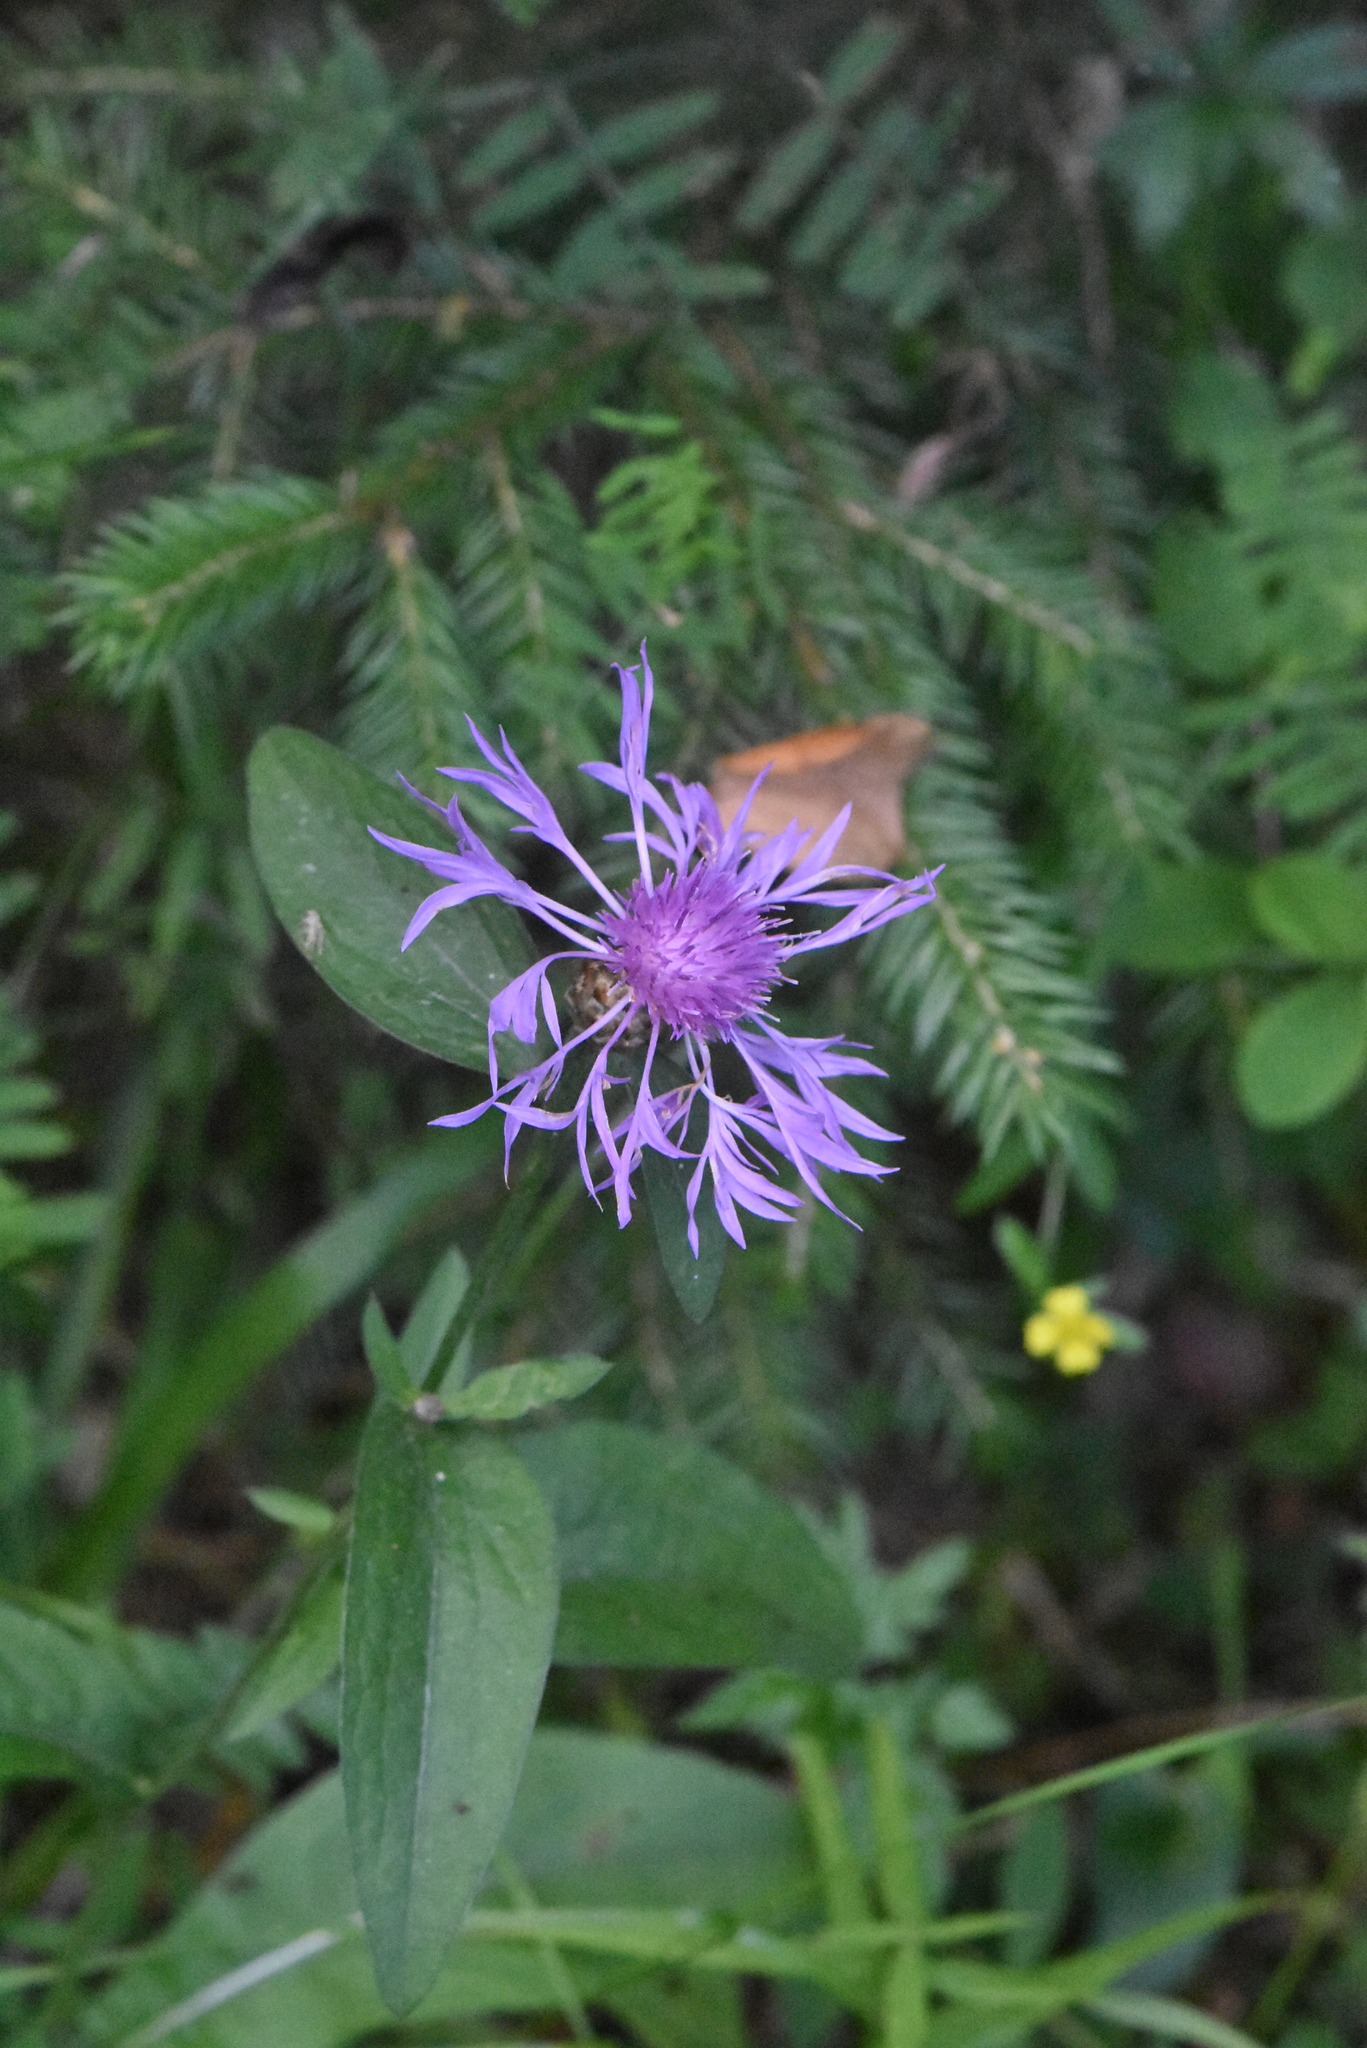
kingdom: Plantae
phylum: Tracheophyta
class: Magnoliopsida
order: Asterales
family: Asteraceae
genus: Centaurea
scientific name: Centaurea jacea
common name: Brown knapweed
